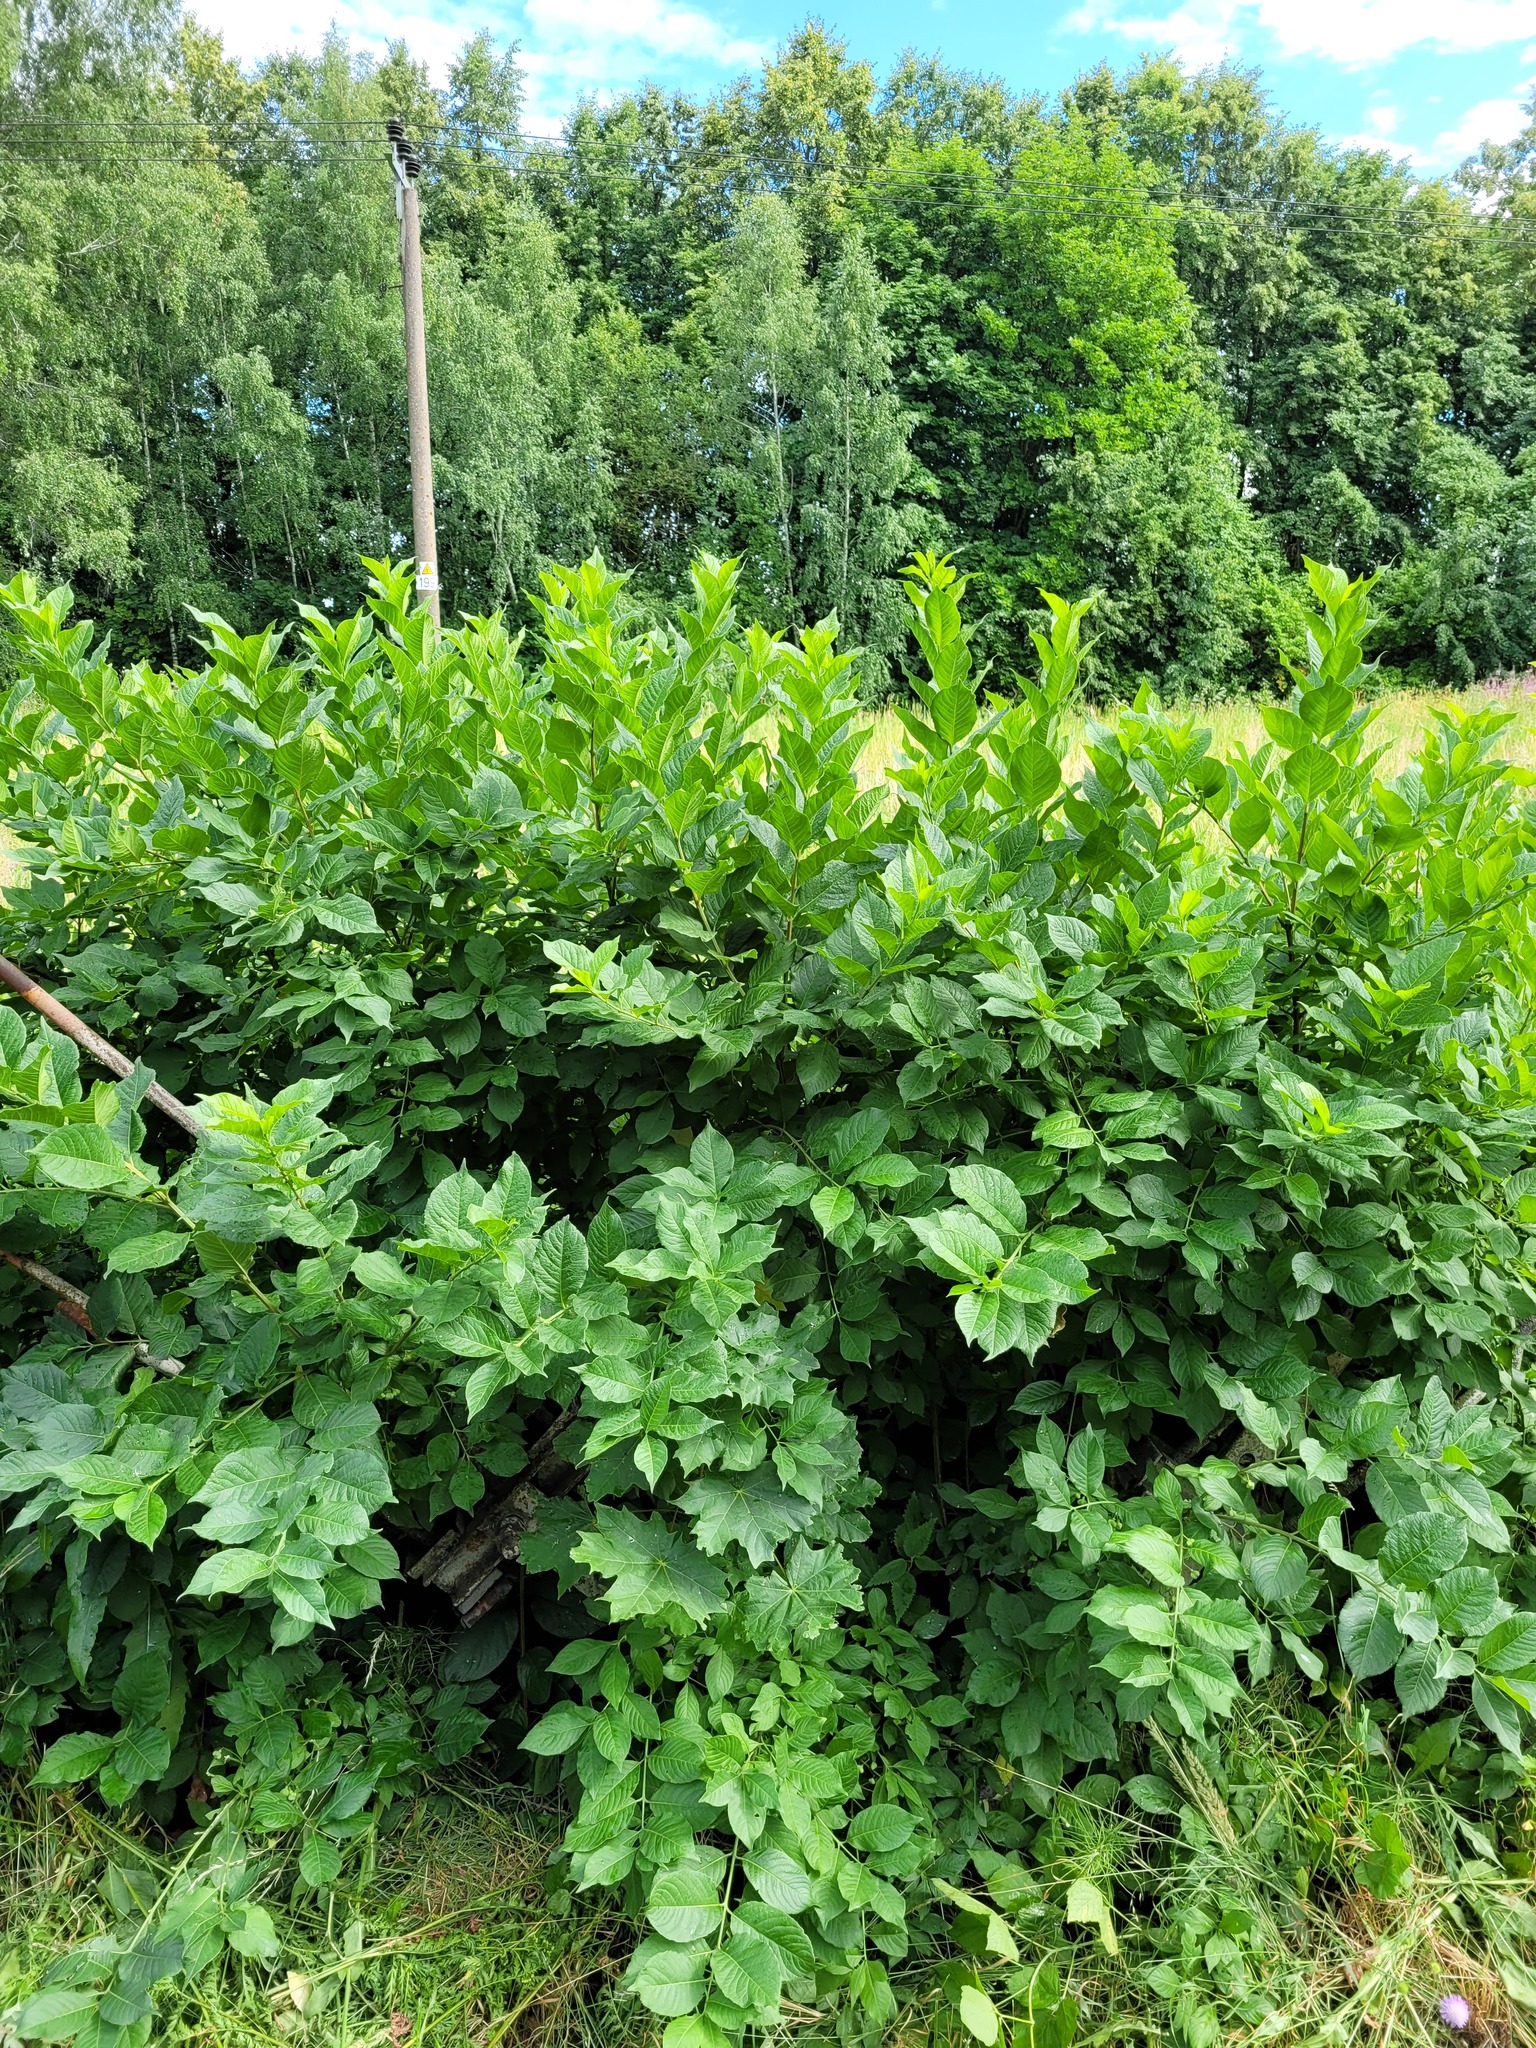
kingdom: Plantae
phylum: Tracheophyta
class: Magnoliopsida
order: Celastrales
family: Celastraceae
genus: Euonymus
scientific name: Euonymus europaeus
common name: Spindle
